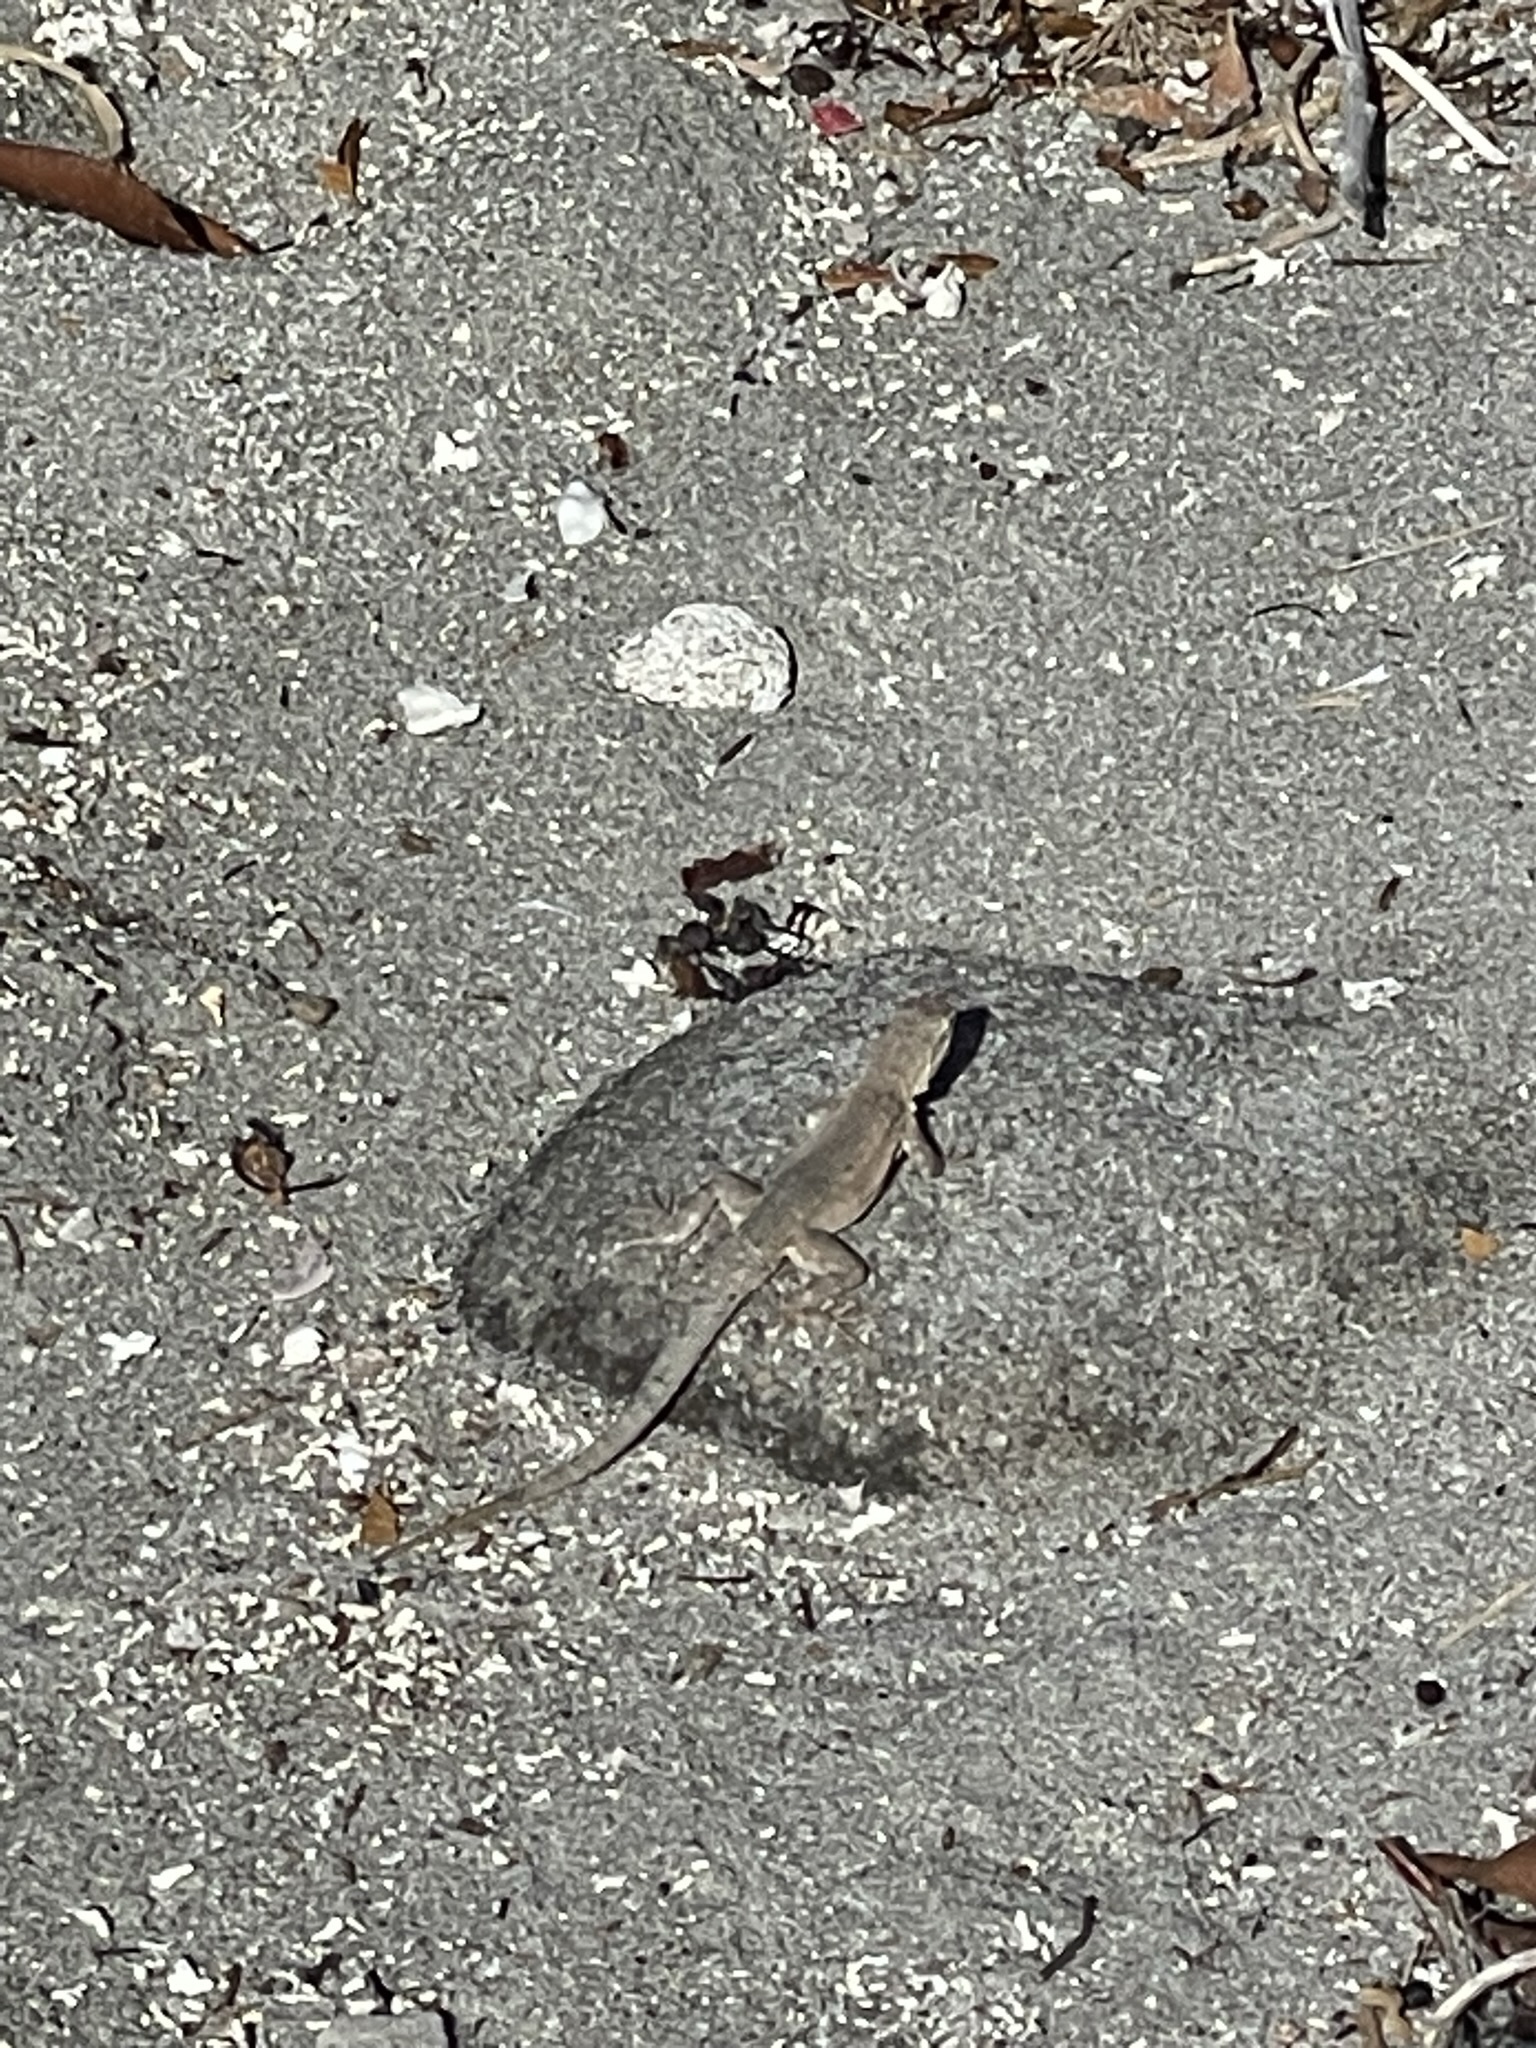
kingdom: Animalia
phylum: Chordata
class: Squamata
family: Phrynosomatidae
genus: Uta
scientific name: Uta stansburiana
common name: Side-blotched lizard
